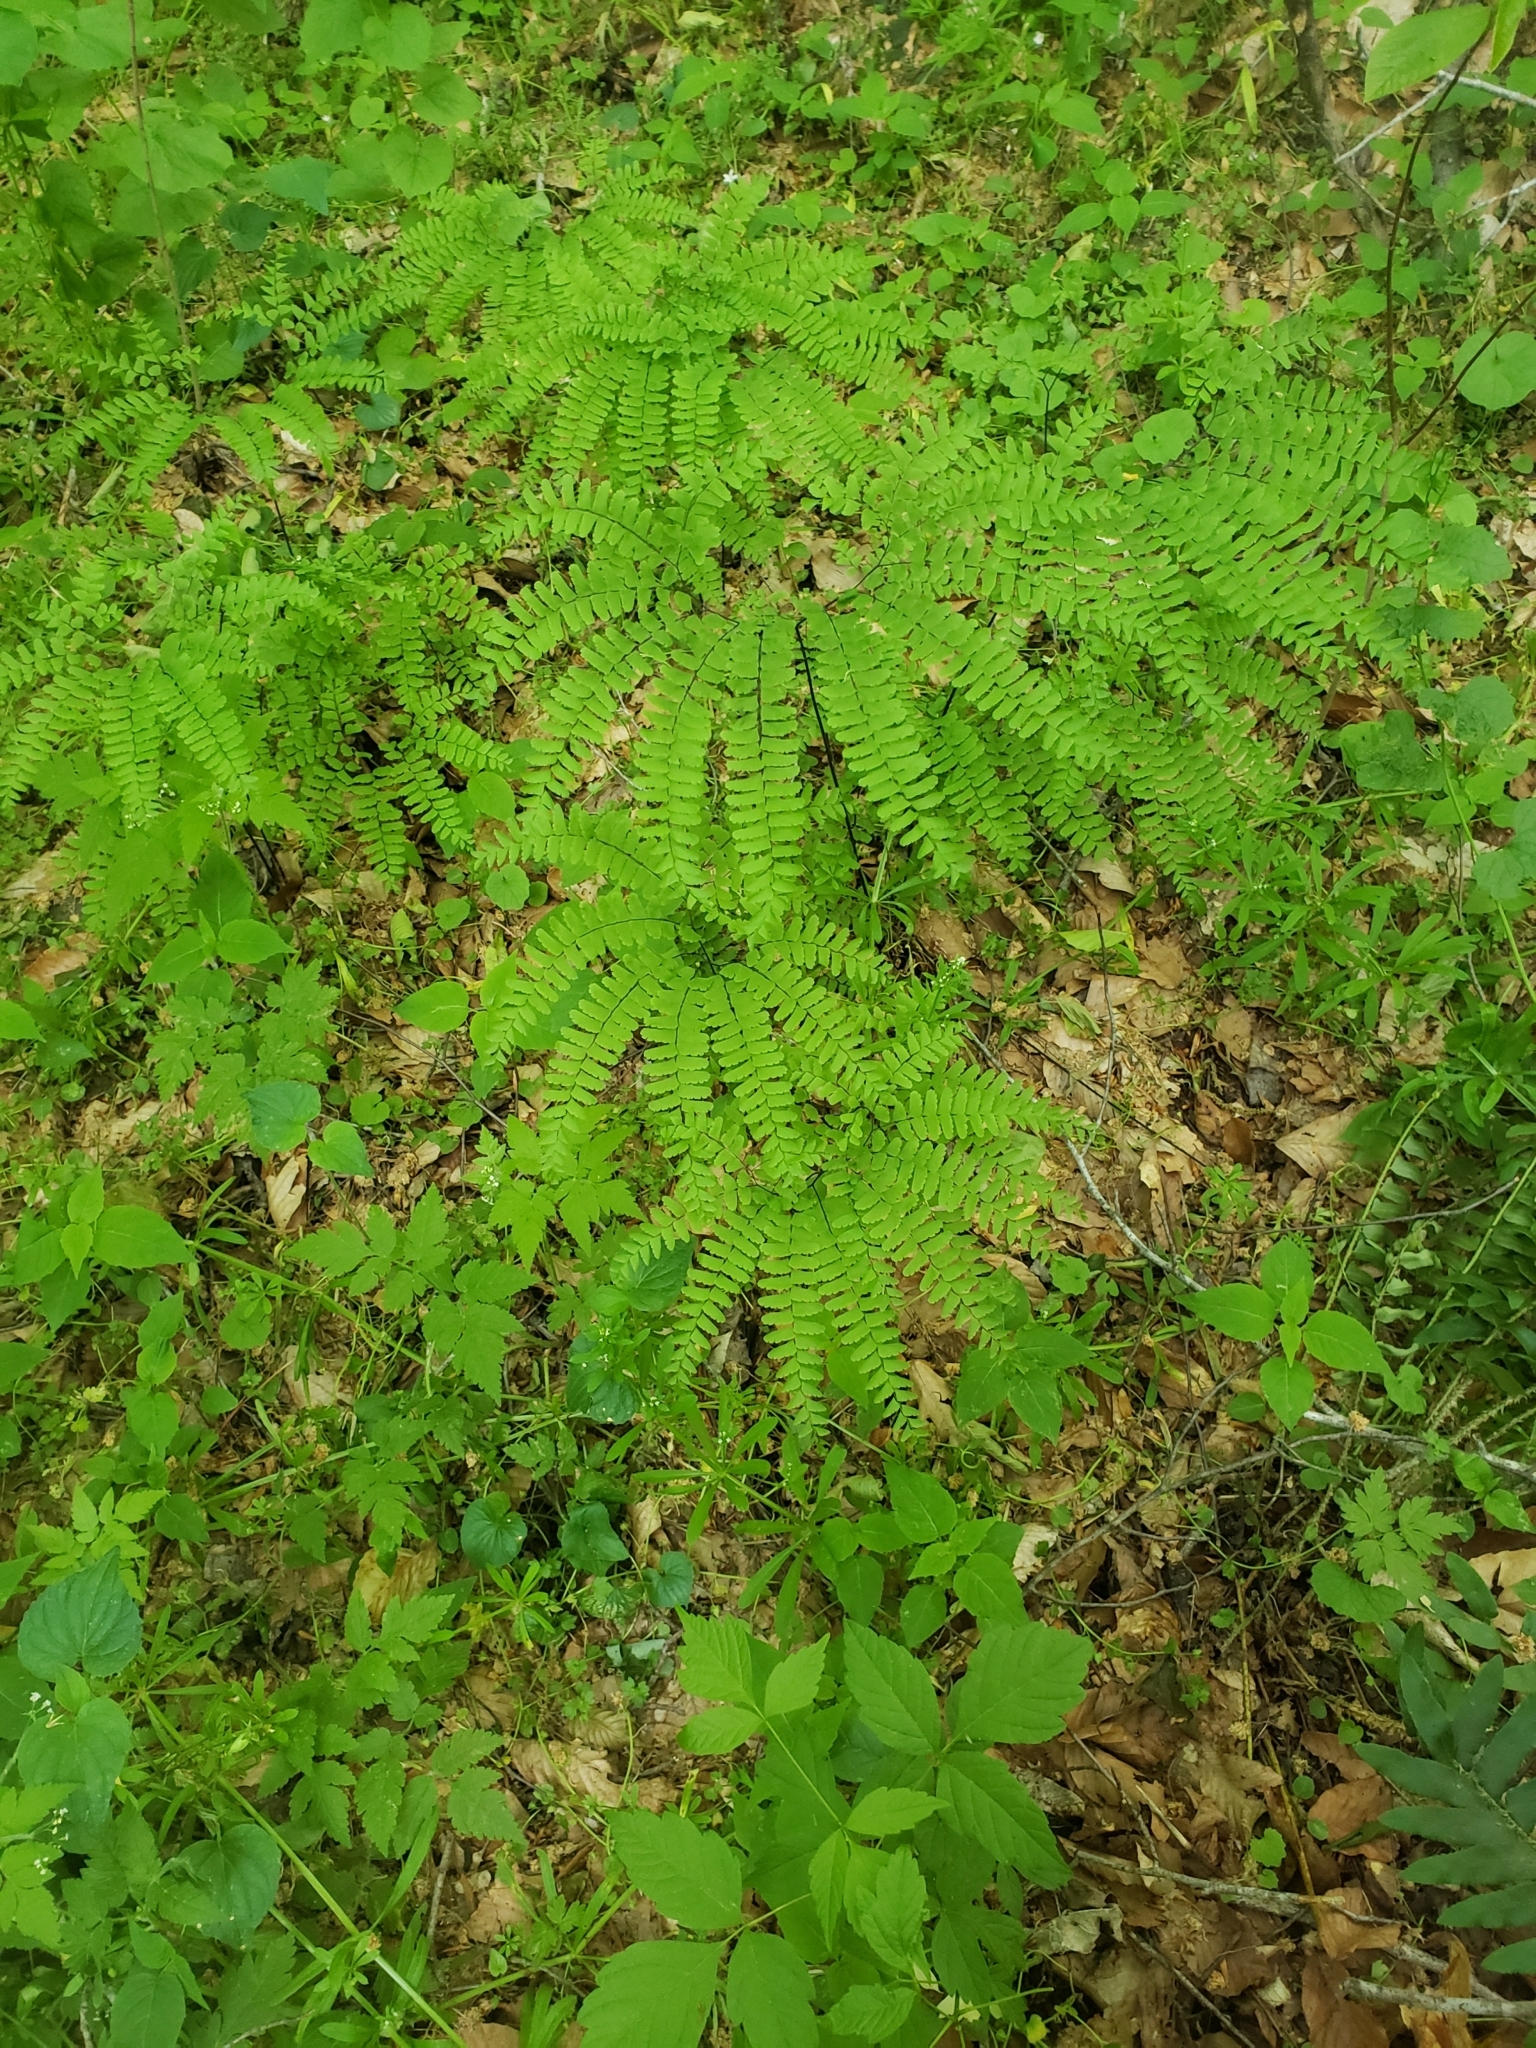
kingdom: Plantae
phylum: Tracheophyta
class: Polypodiopsida
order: Polypodiales
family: Pteridaceae
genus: Adiantum
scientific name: Adiantum pedatum
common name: Five-finger fern
